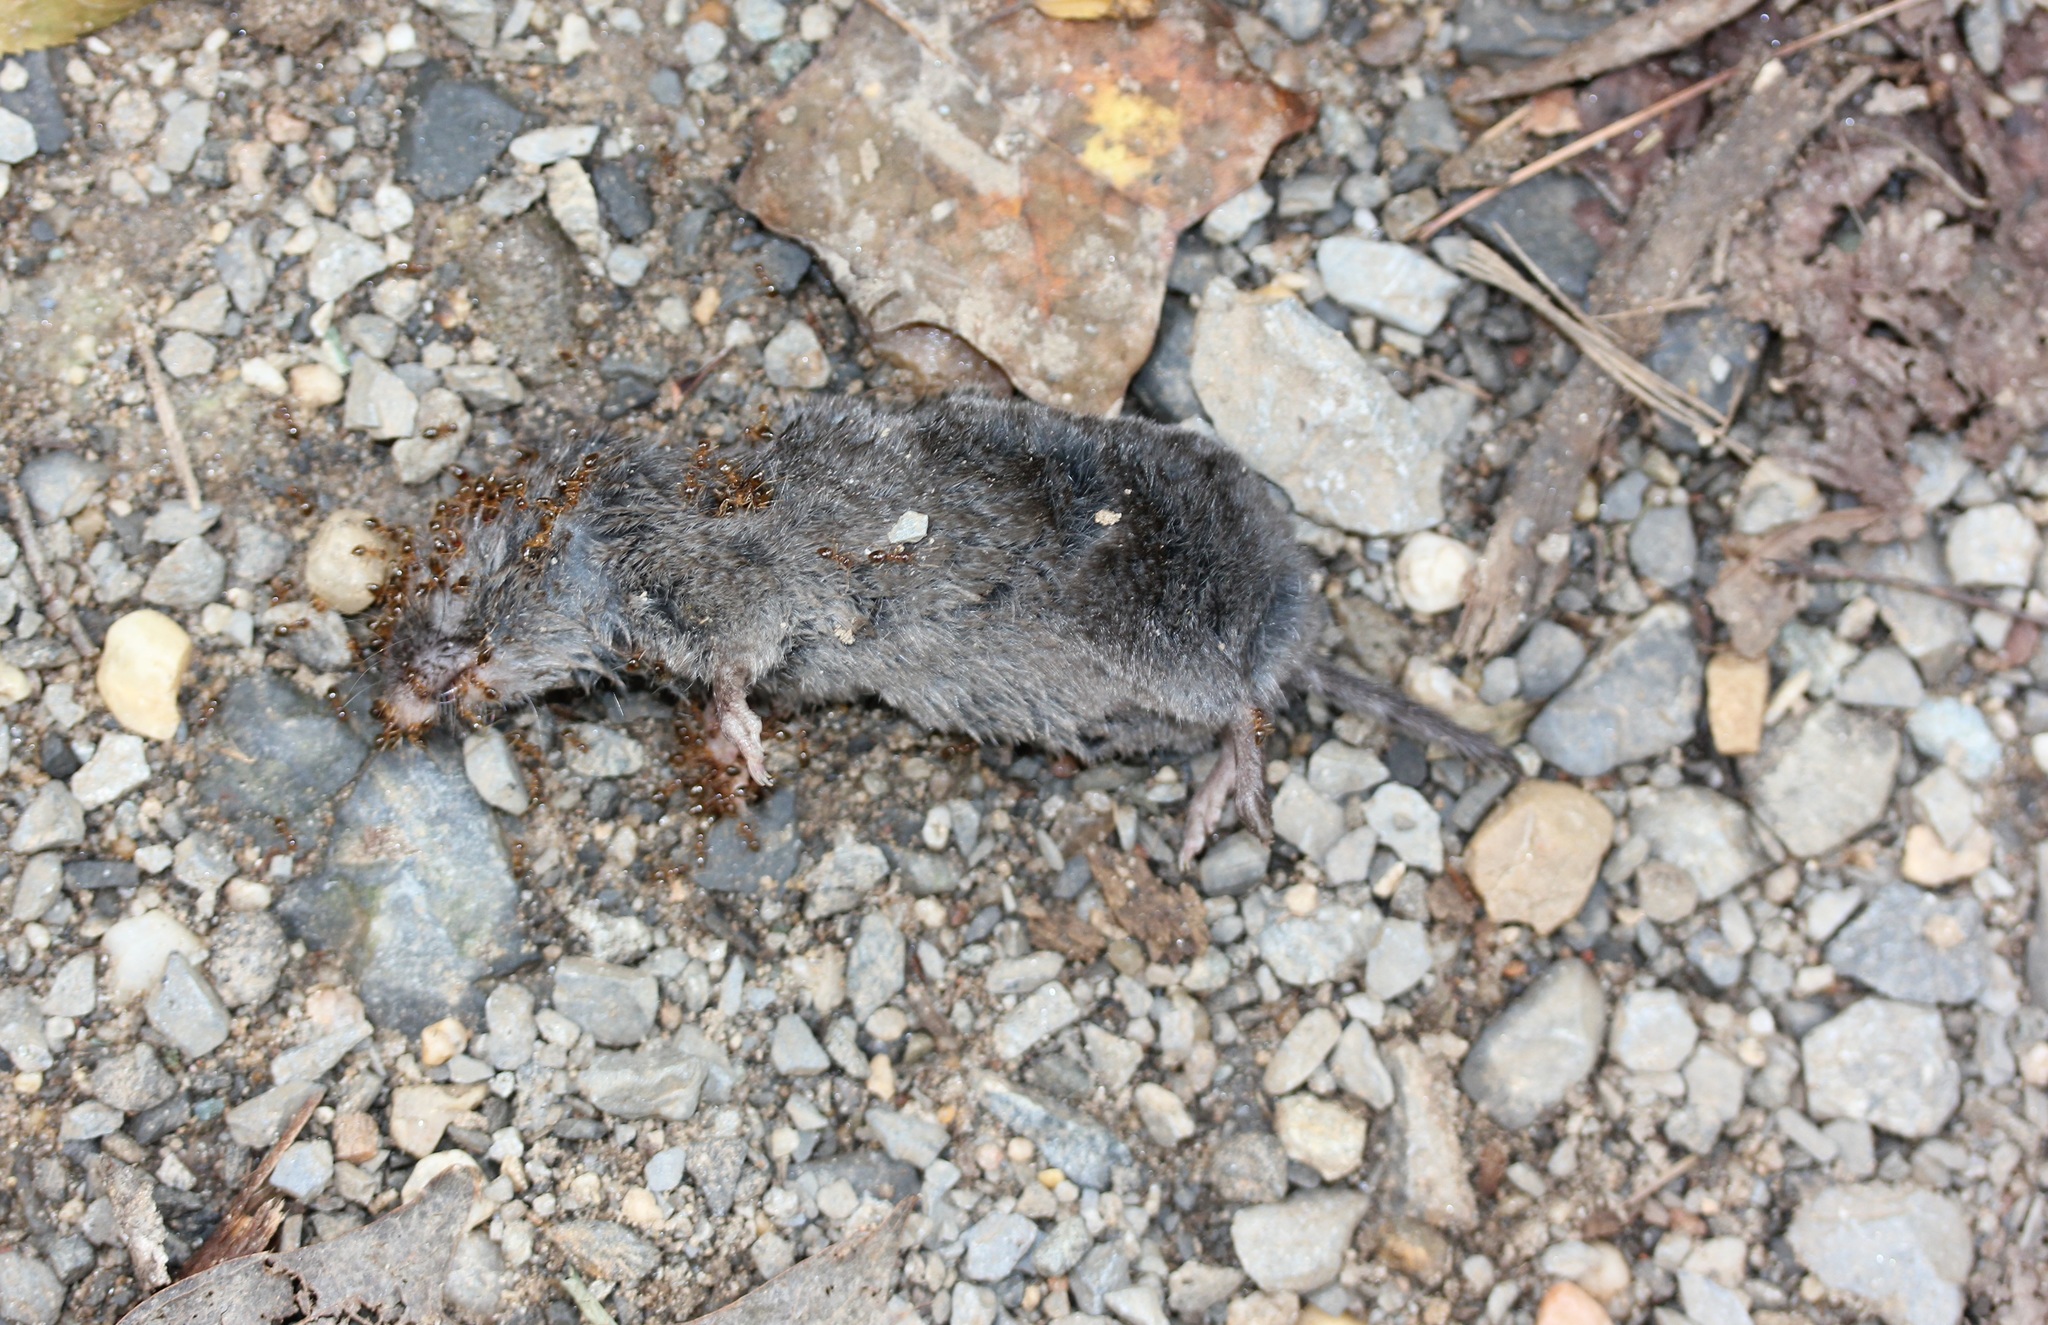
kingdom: Animalia
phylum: Chordata
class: Mammalia
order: Soricomorpha
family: Soricidae
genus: Blarina
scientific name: Blarina brevicauda
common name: Northern short-tailed shrew
